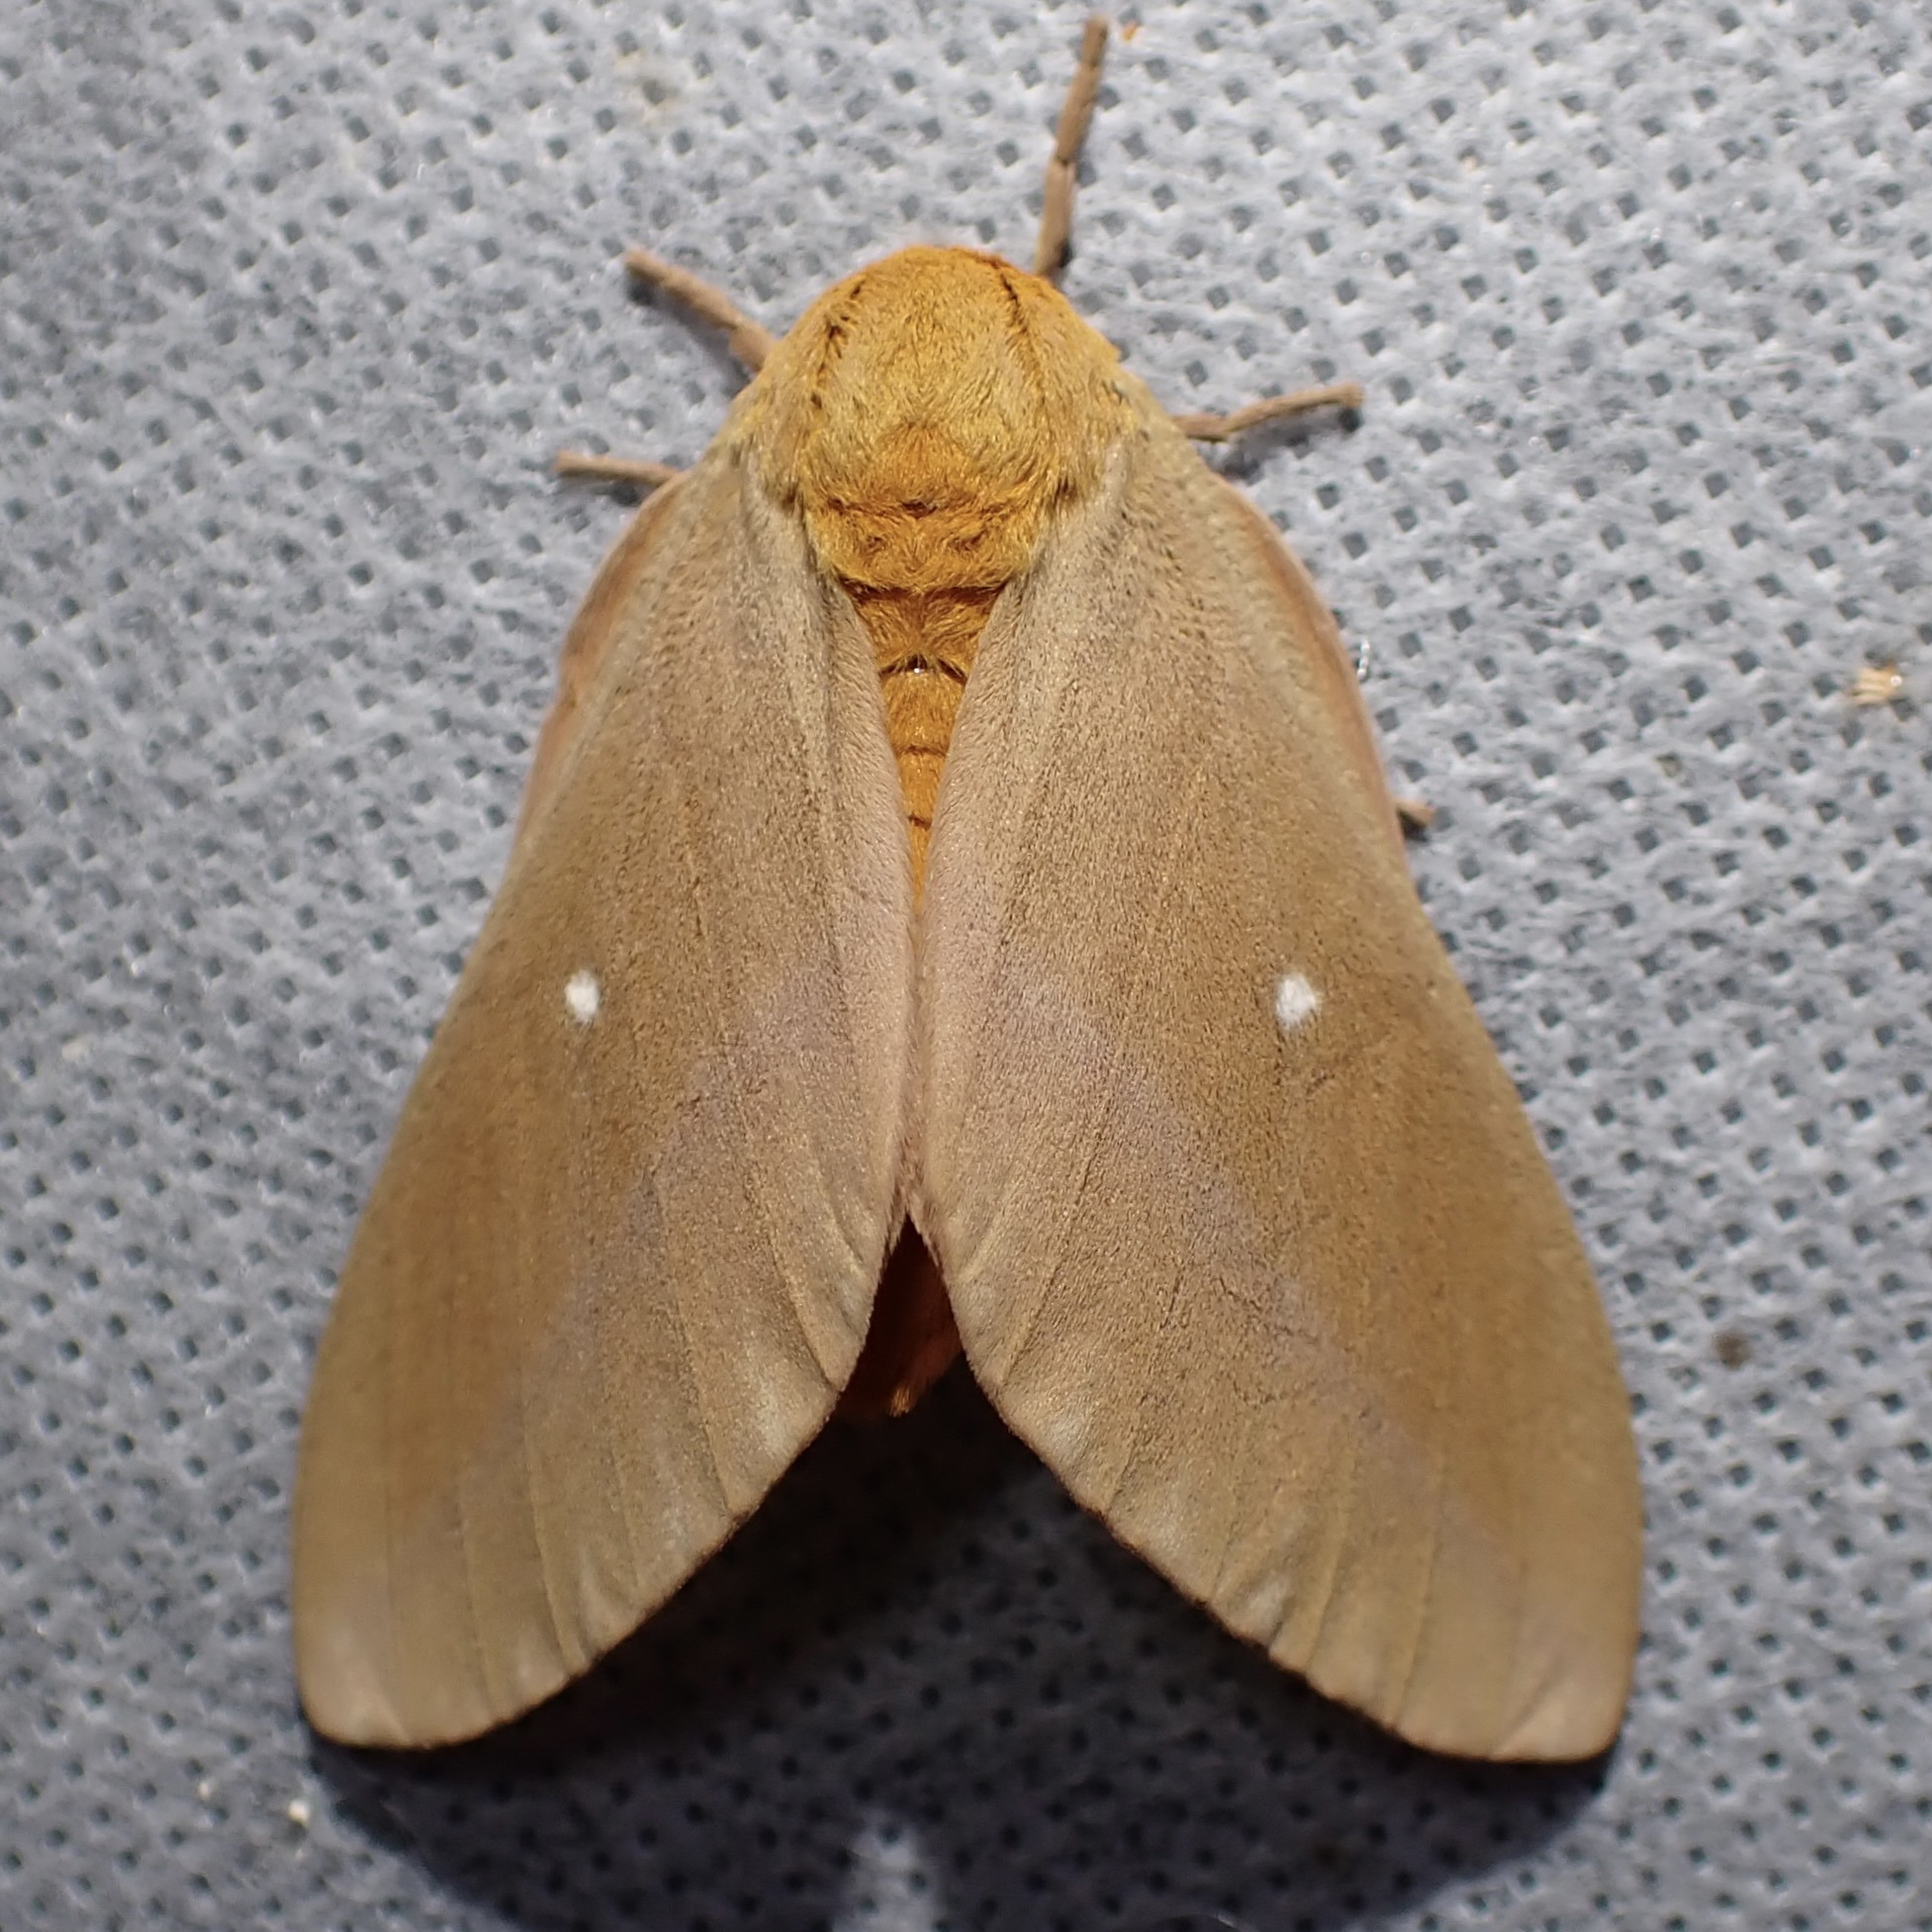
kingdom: Animalia
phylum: Arthropoda
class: Insecta
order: Lepidoptera
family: Saturniidae
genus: Anisota
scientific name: Anisota oslari
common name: Oslar's oakworm moth
